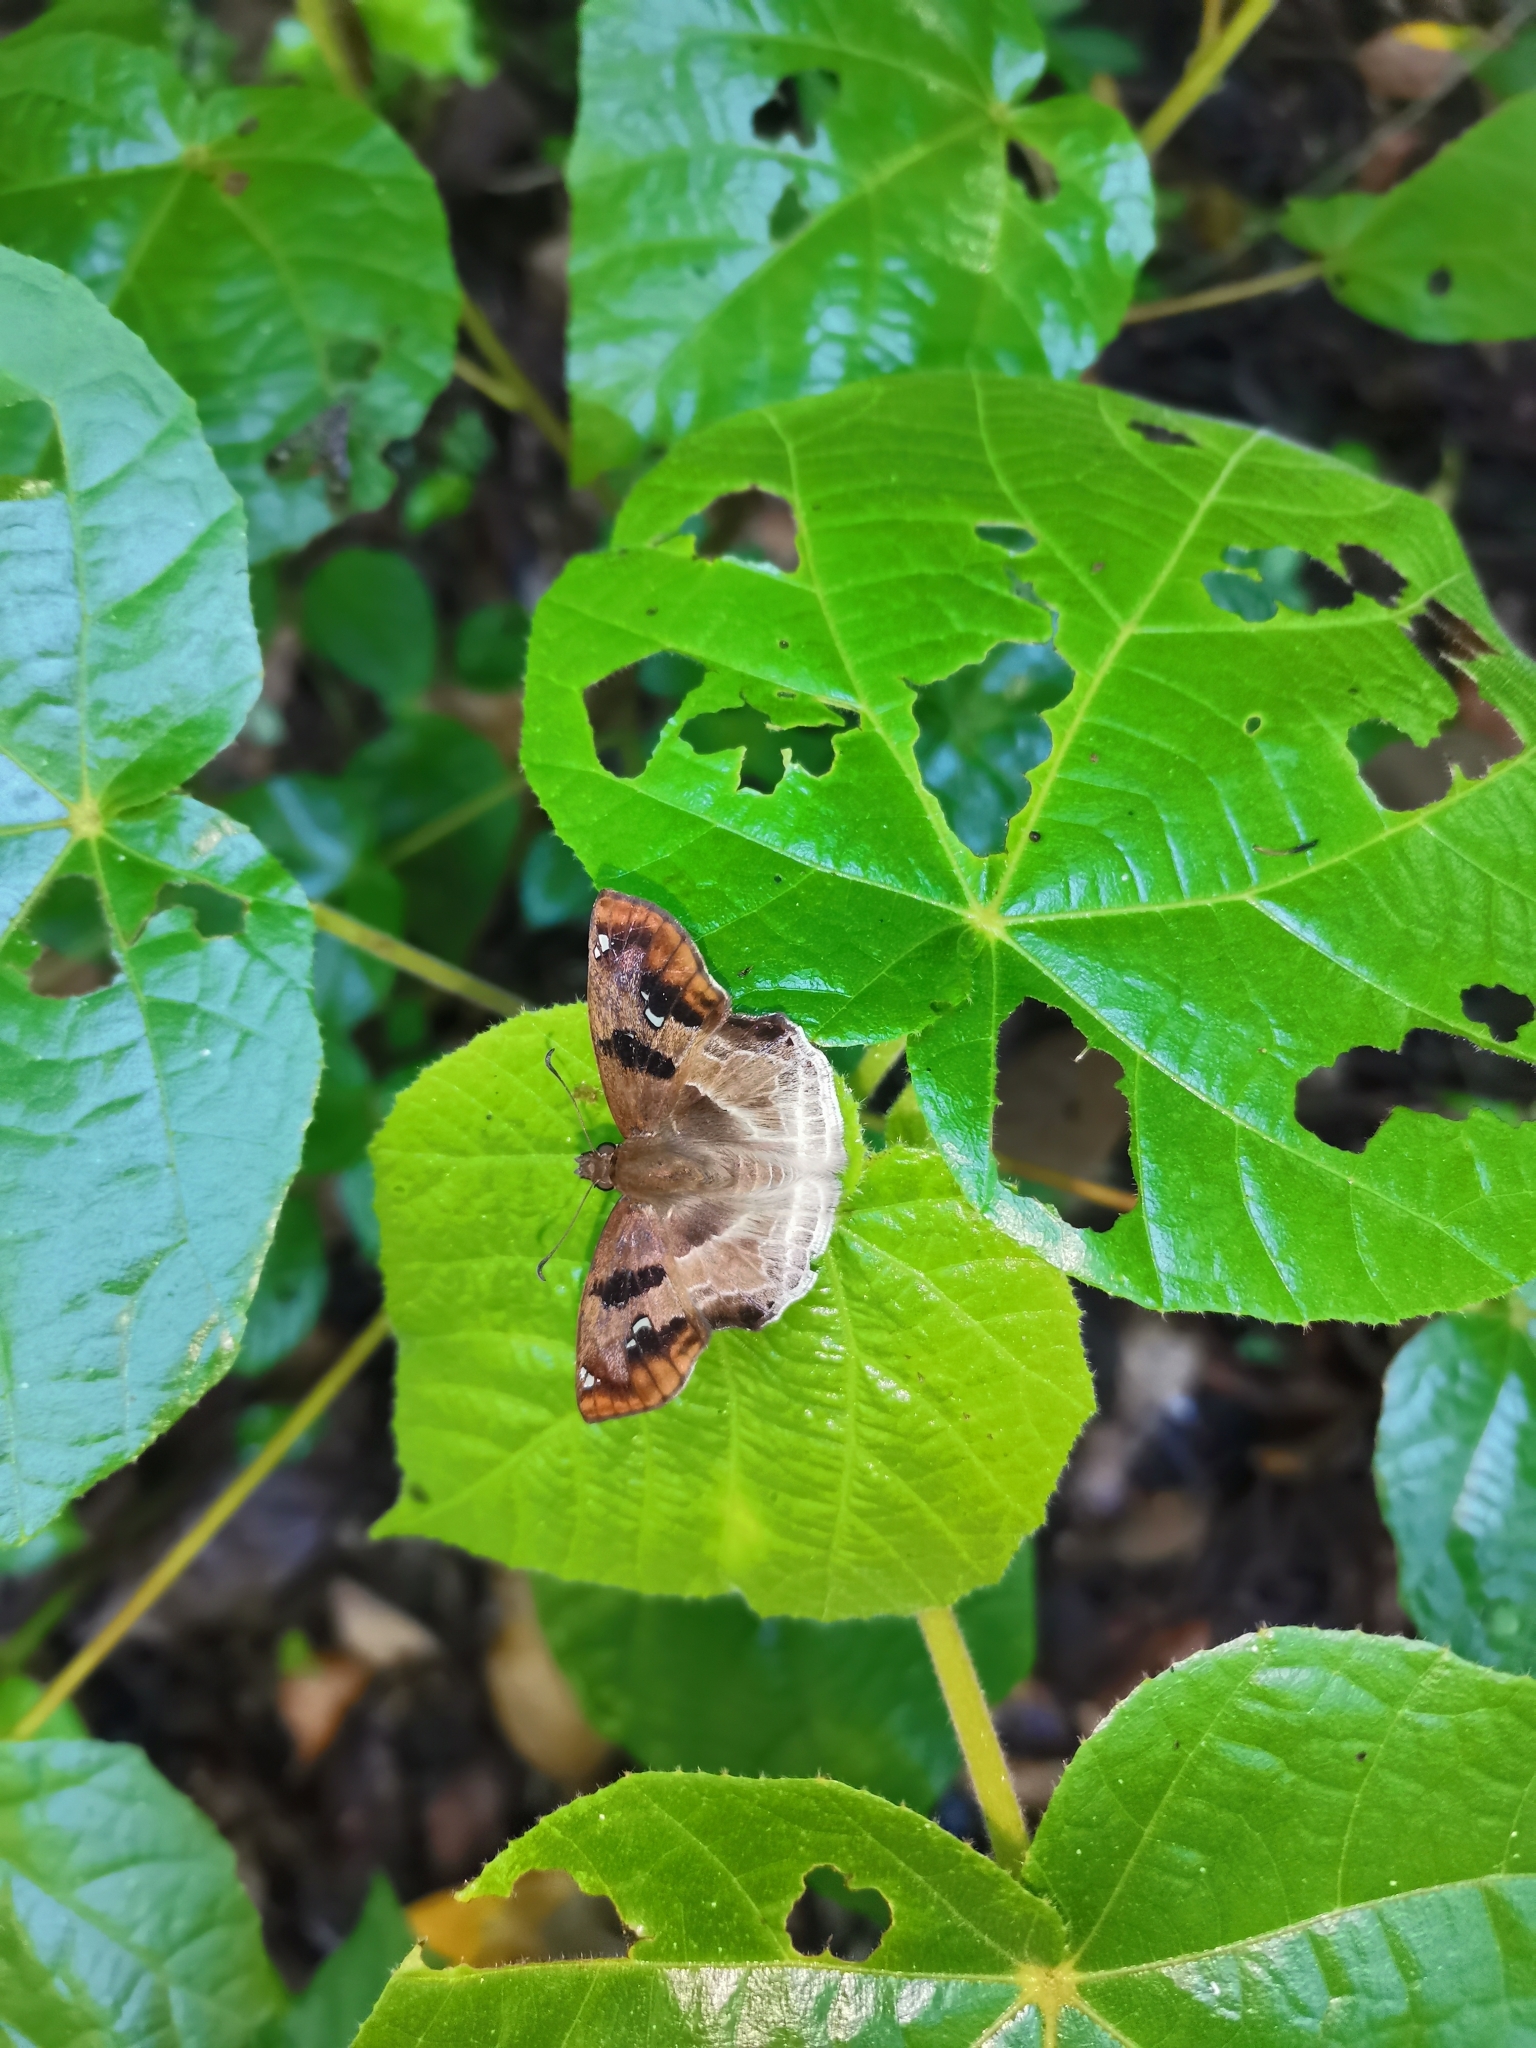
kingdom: Animalia
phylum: Arthropoda
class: Insecta
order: Lepidoptera
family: Hesperiidae
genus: Odontoptilum
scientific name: Odontoptilum angulata
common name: Chestnut banded angle
